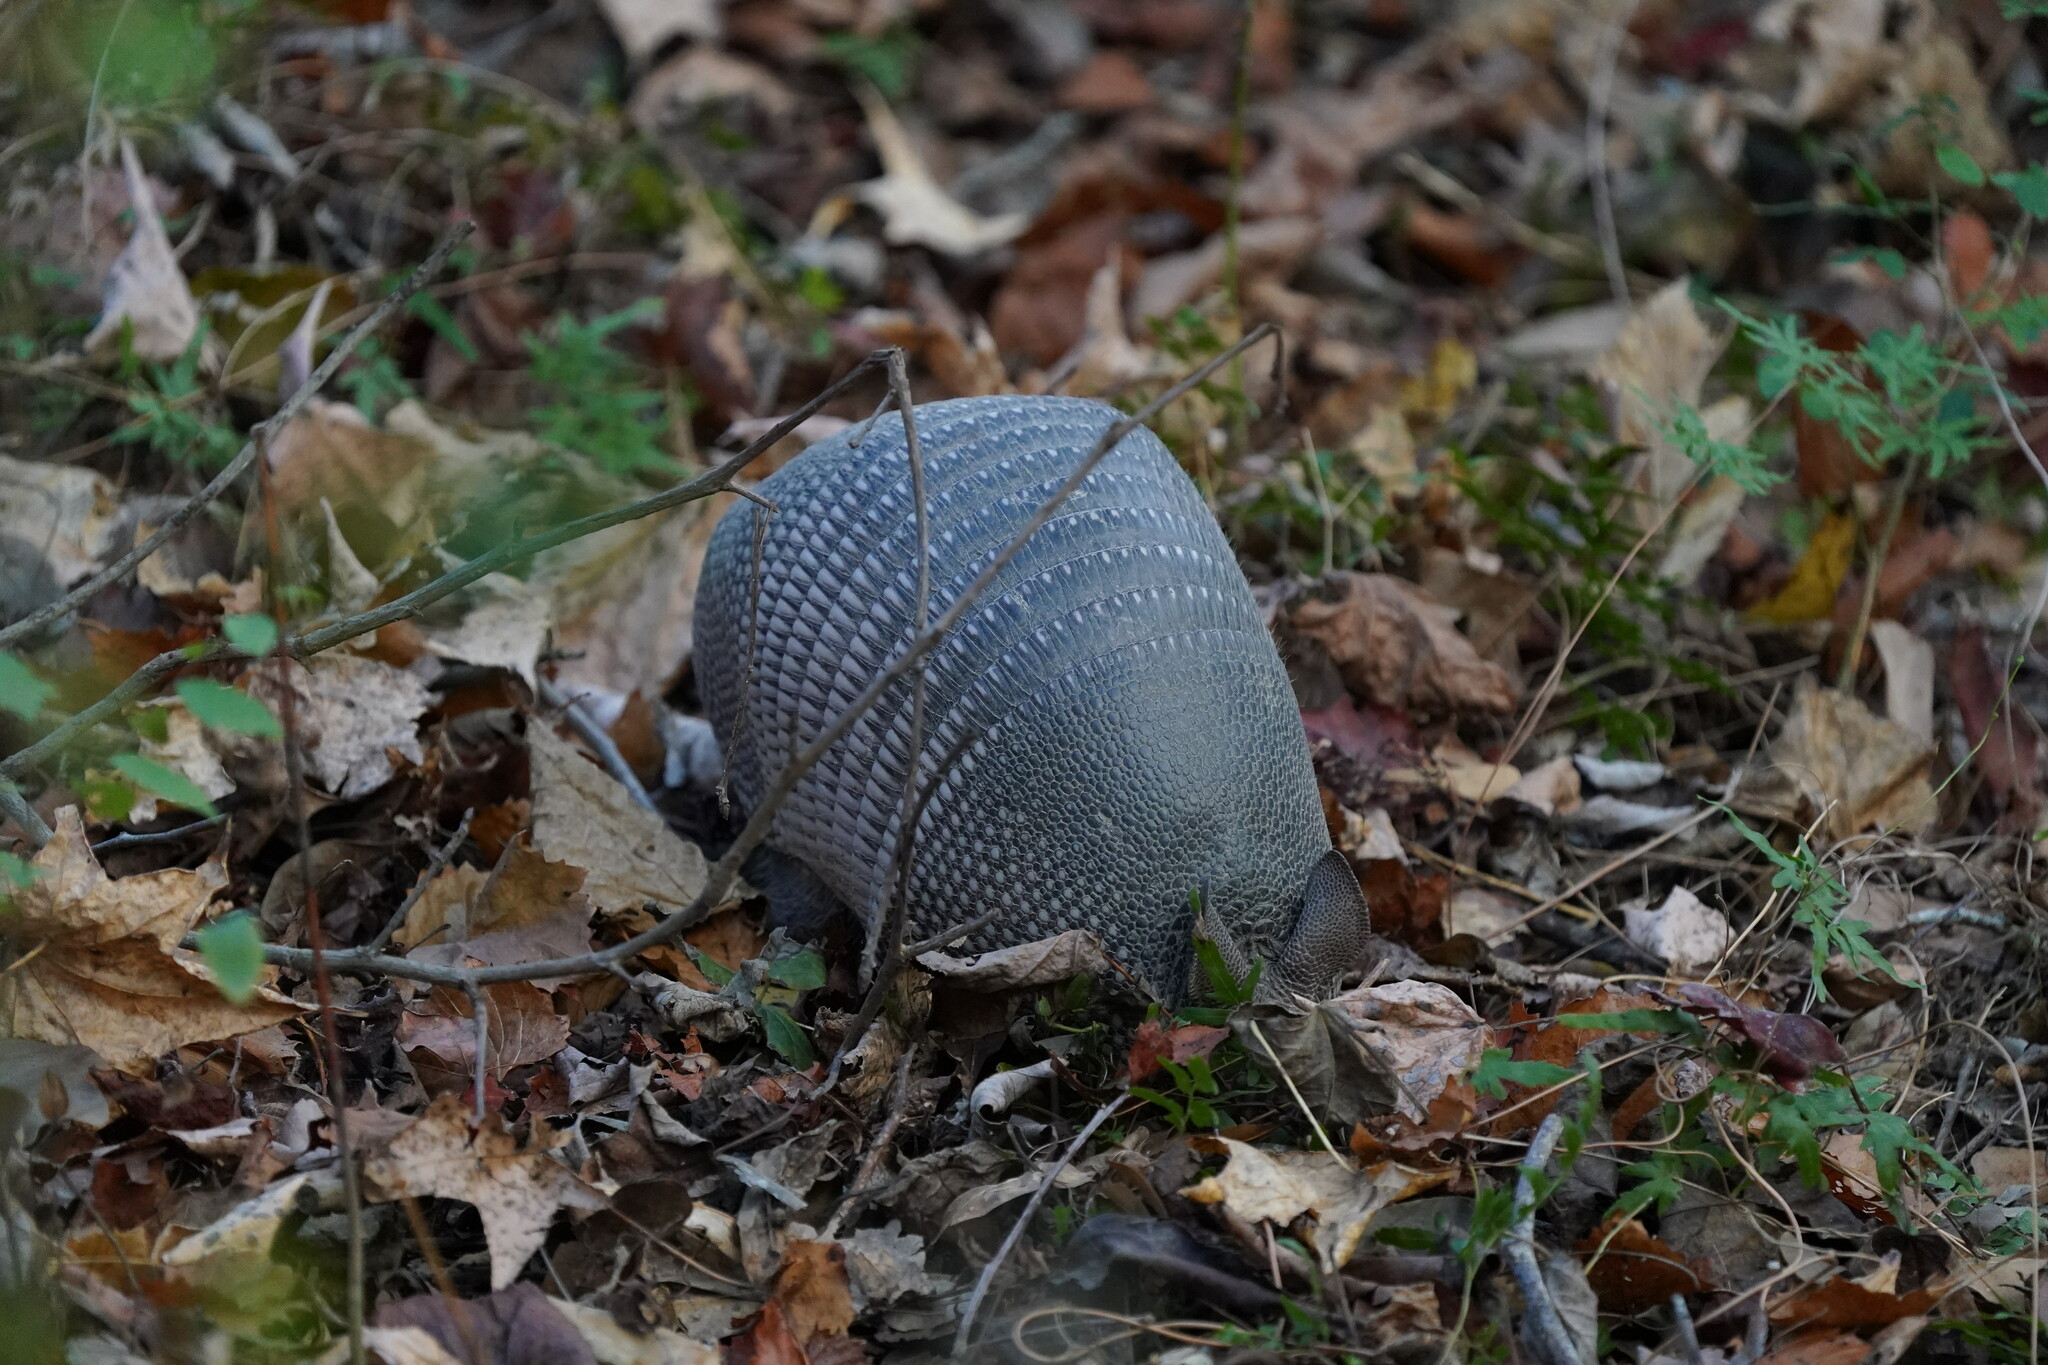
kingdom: Animalia
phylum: Chordata
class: Mammalia
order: Cingulata
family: Dasypodidae
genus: Dasypus
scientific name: Dasypus novemcinctus
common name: Nine-banded armadillo
